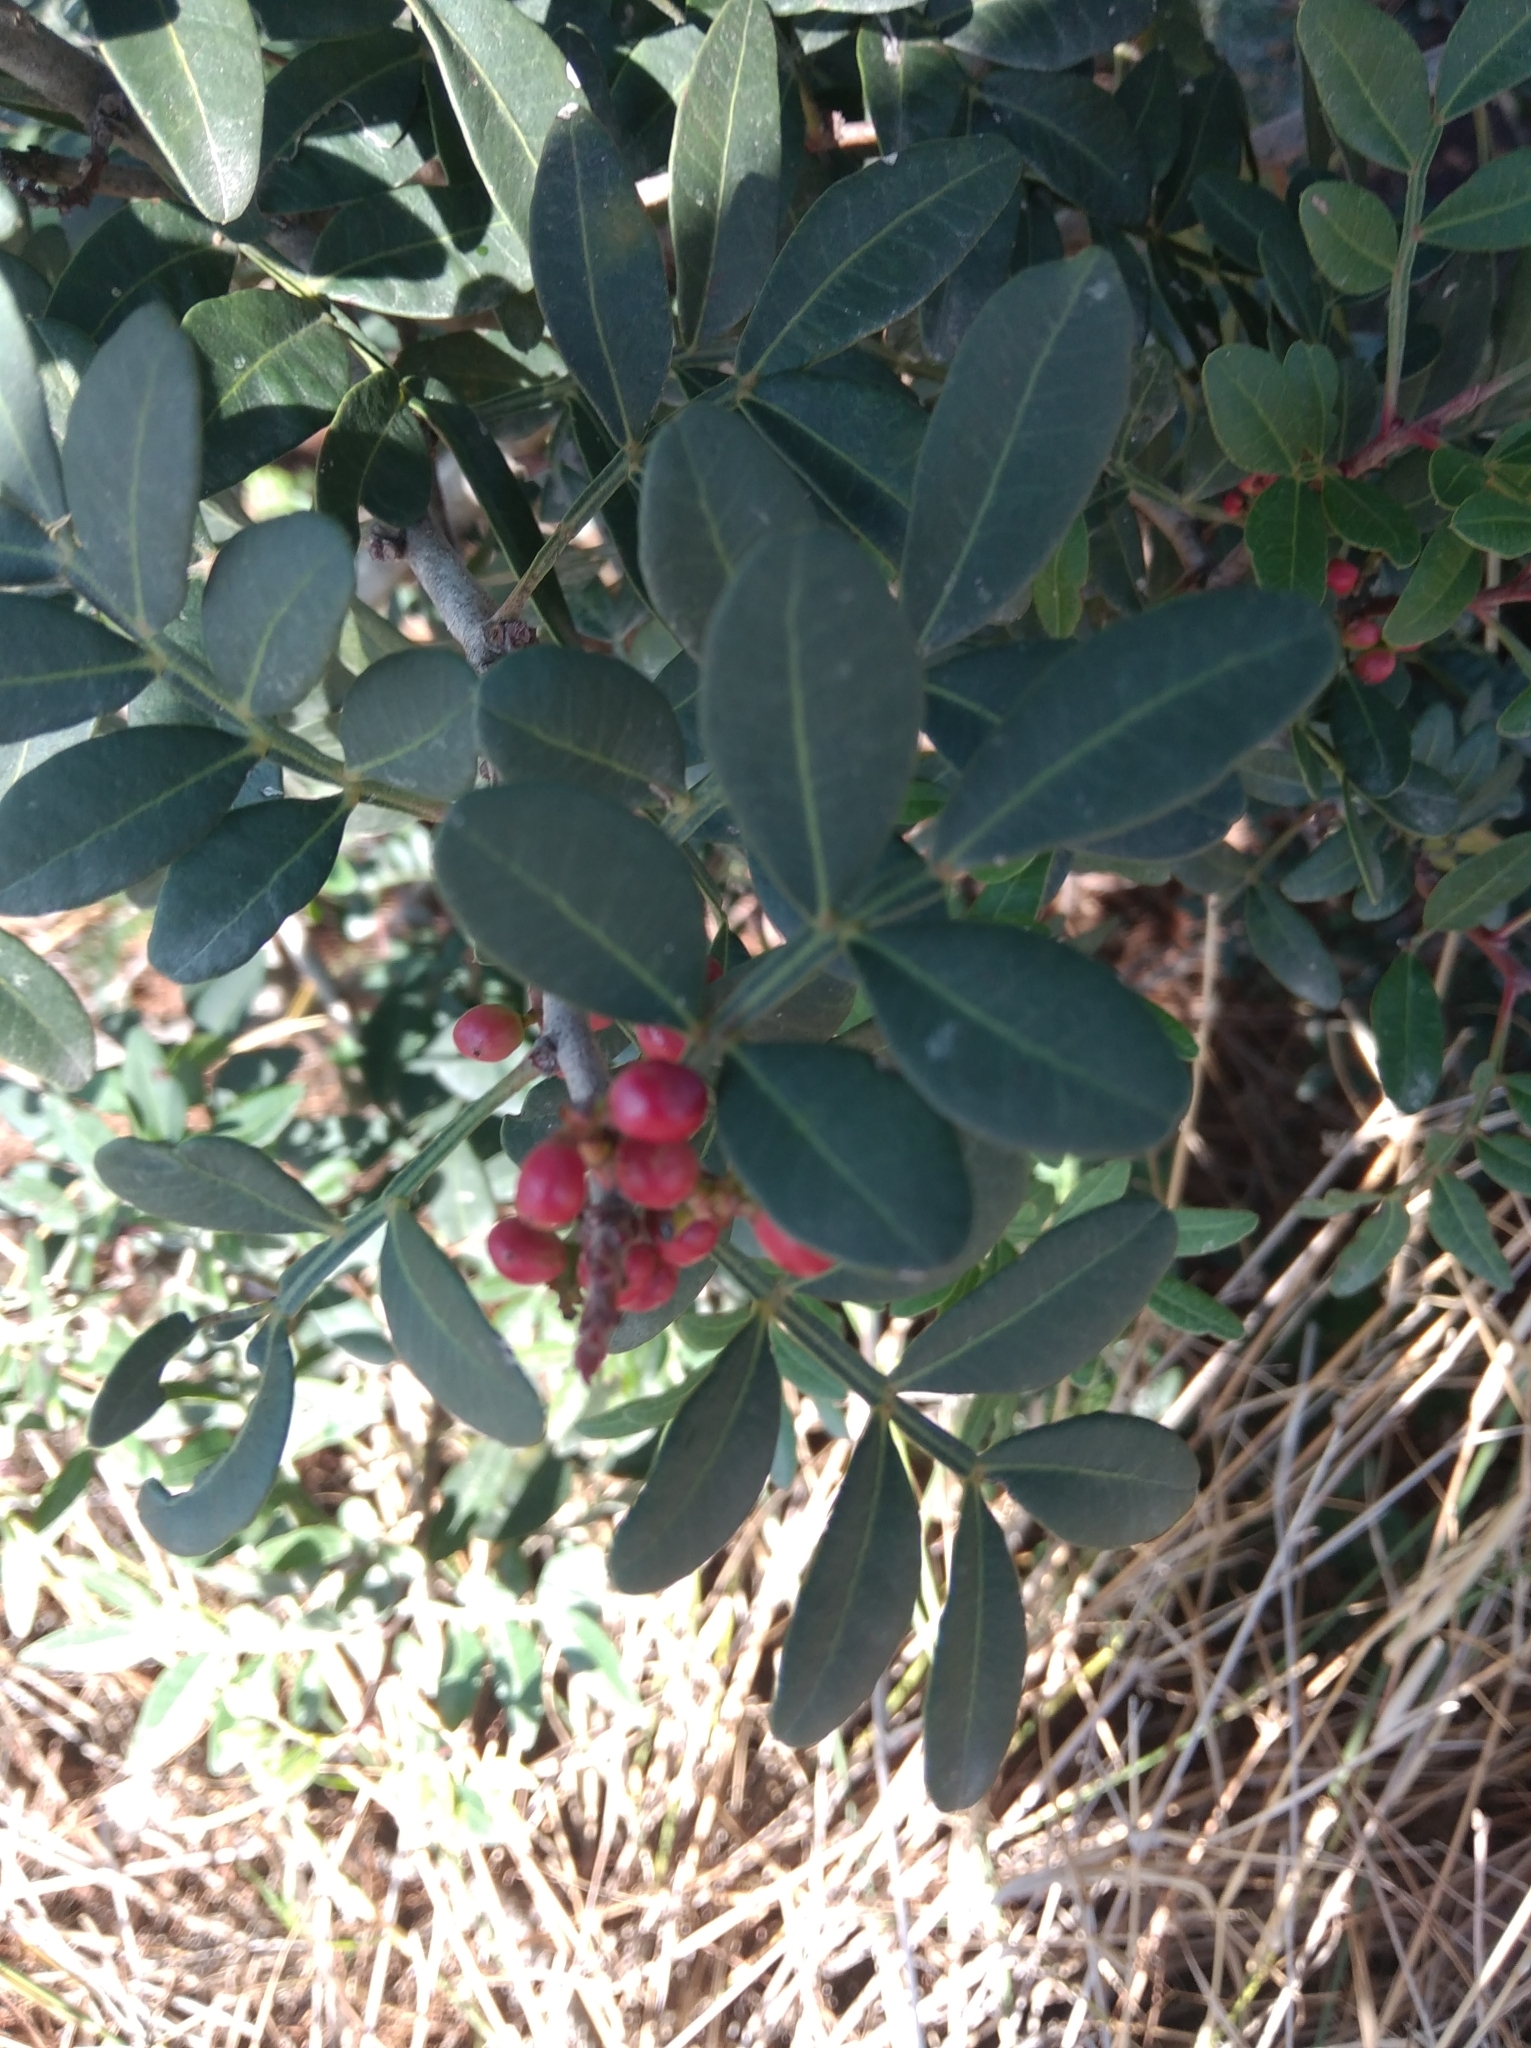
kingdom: Plantae
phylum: Tracheophyta
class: Magnoliopsida
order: Sapindales
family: Anacardiaceae
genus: Pistacia
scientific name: Pistacia lentiscus
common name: Lentisk
